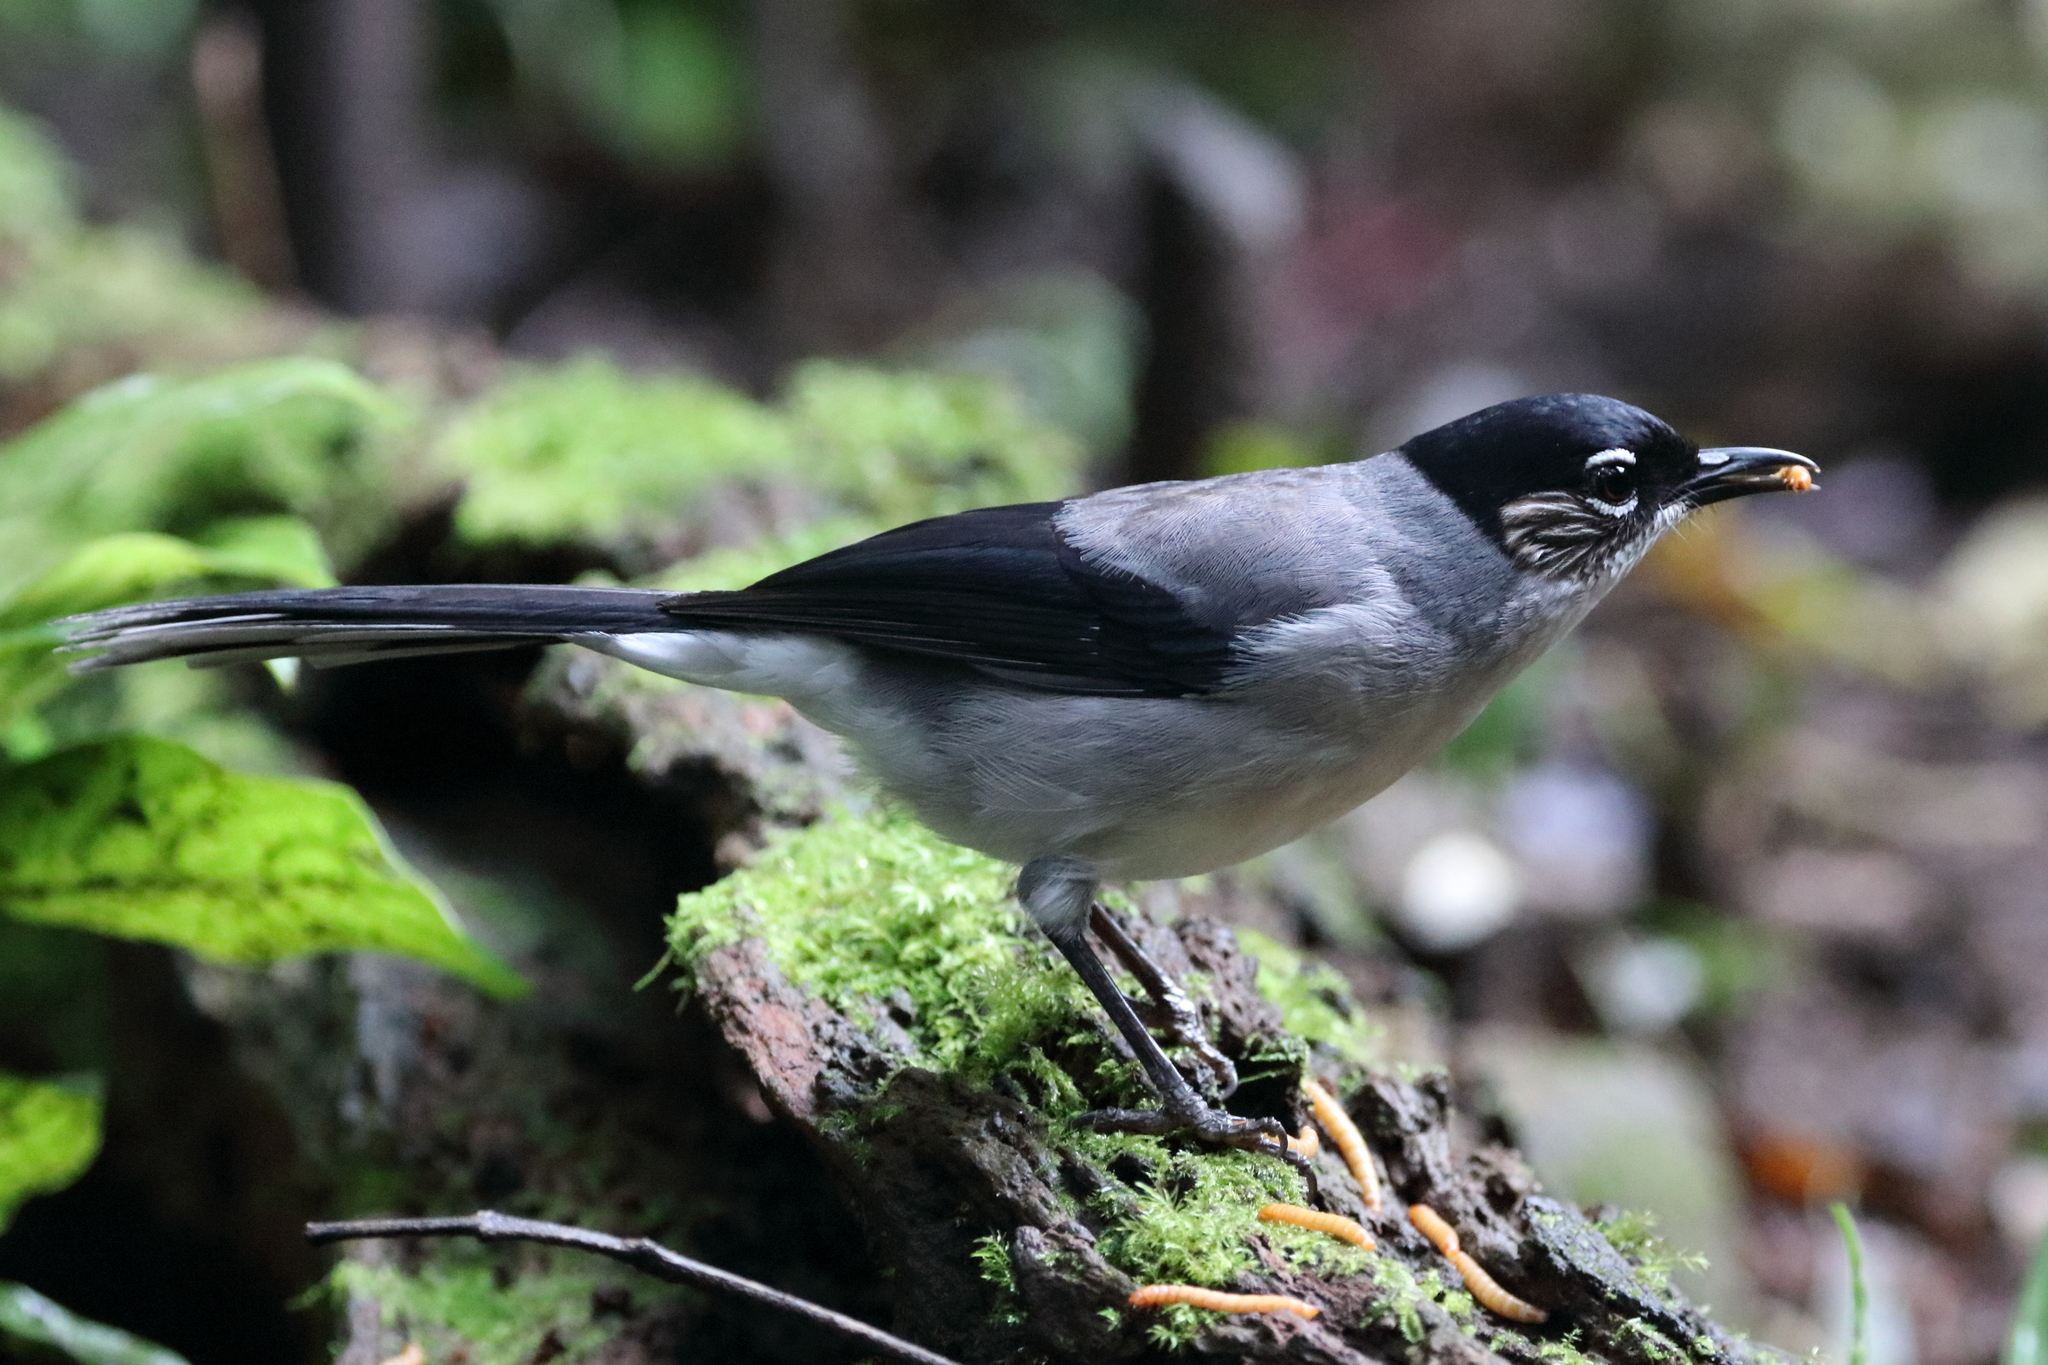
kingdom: Animalia
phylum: Chordata
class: Aves
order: Passeriformes
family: Leiothrichidae
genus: Heterophasia
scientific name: Heterophasia desgodinsi
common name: Black-headed sibia
